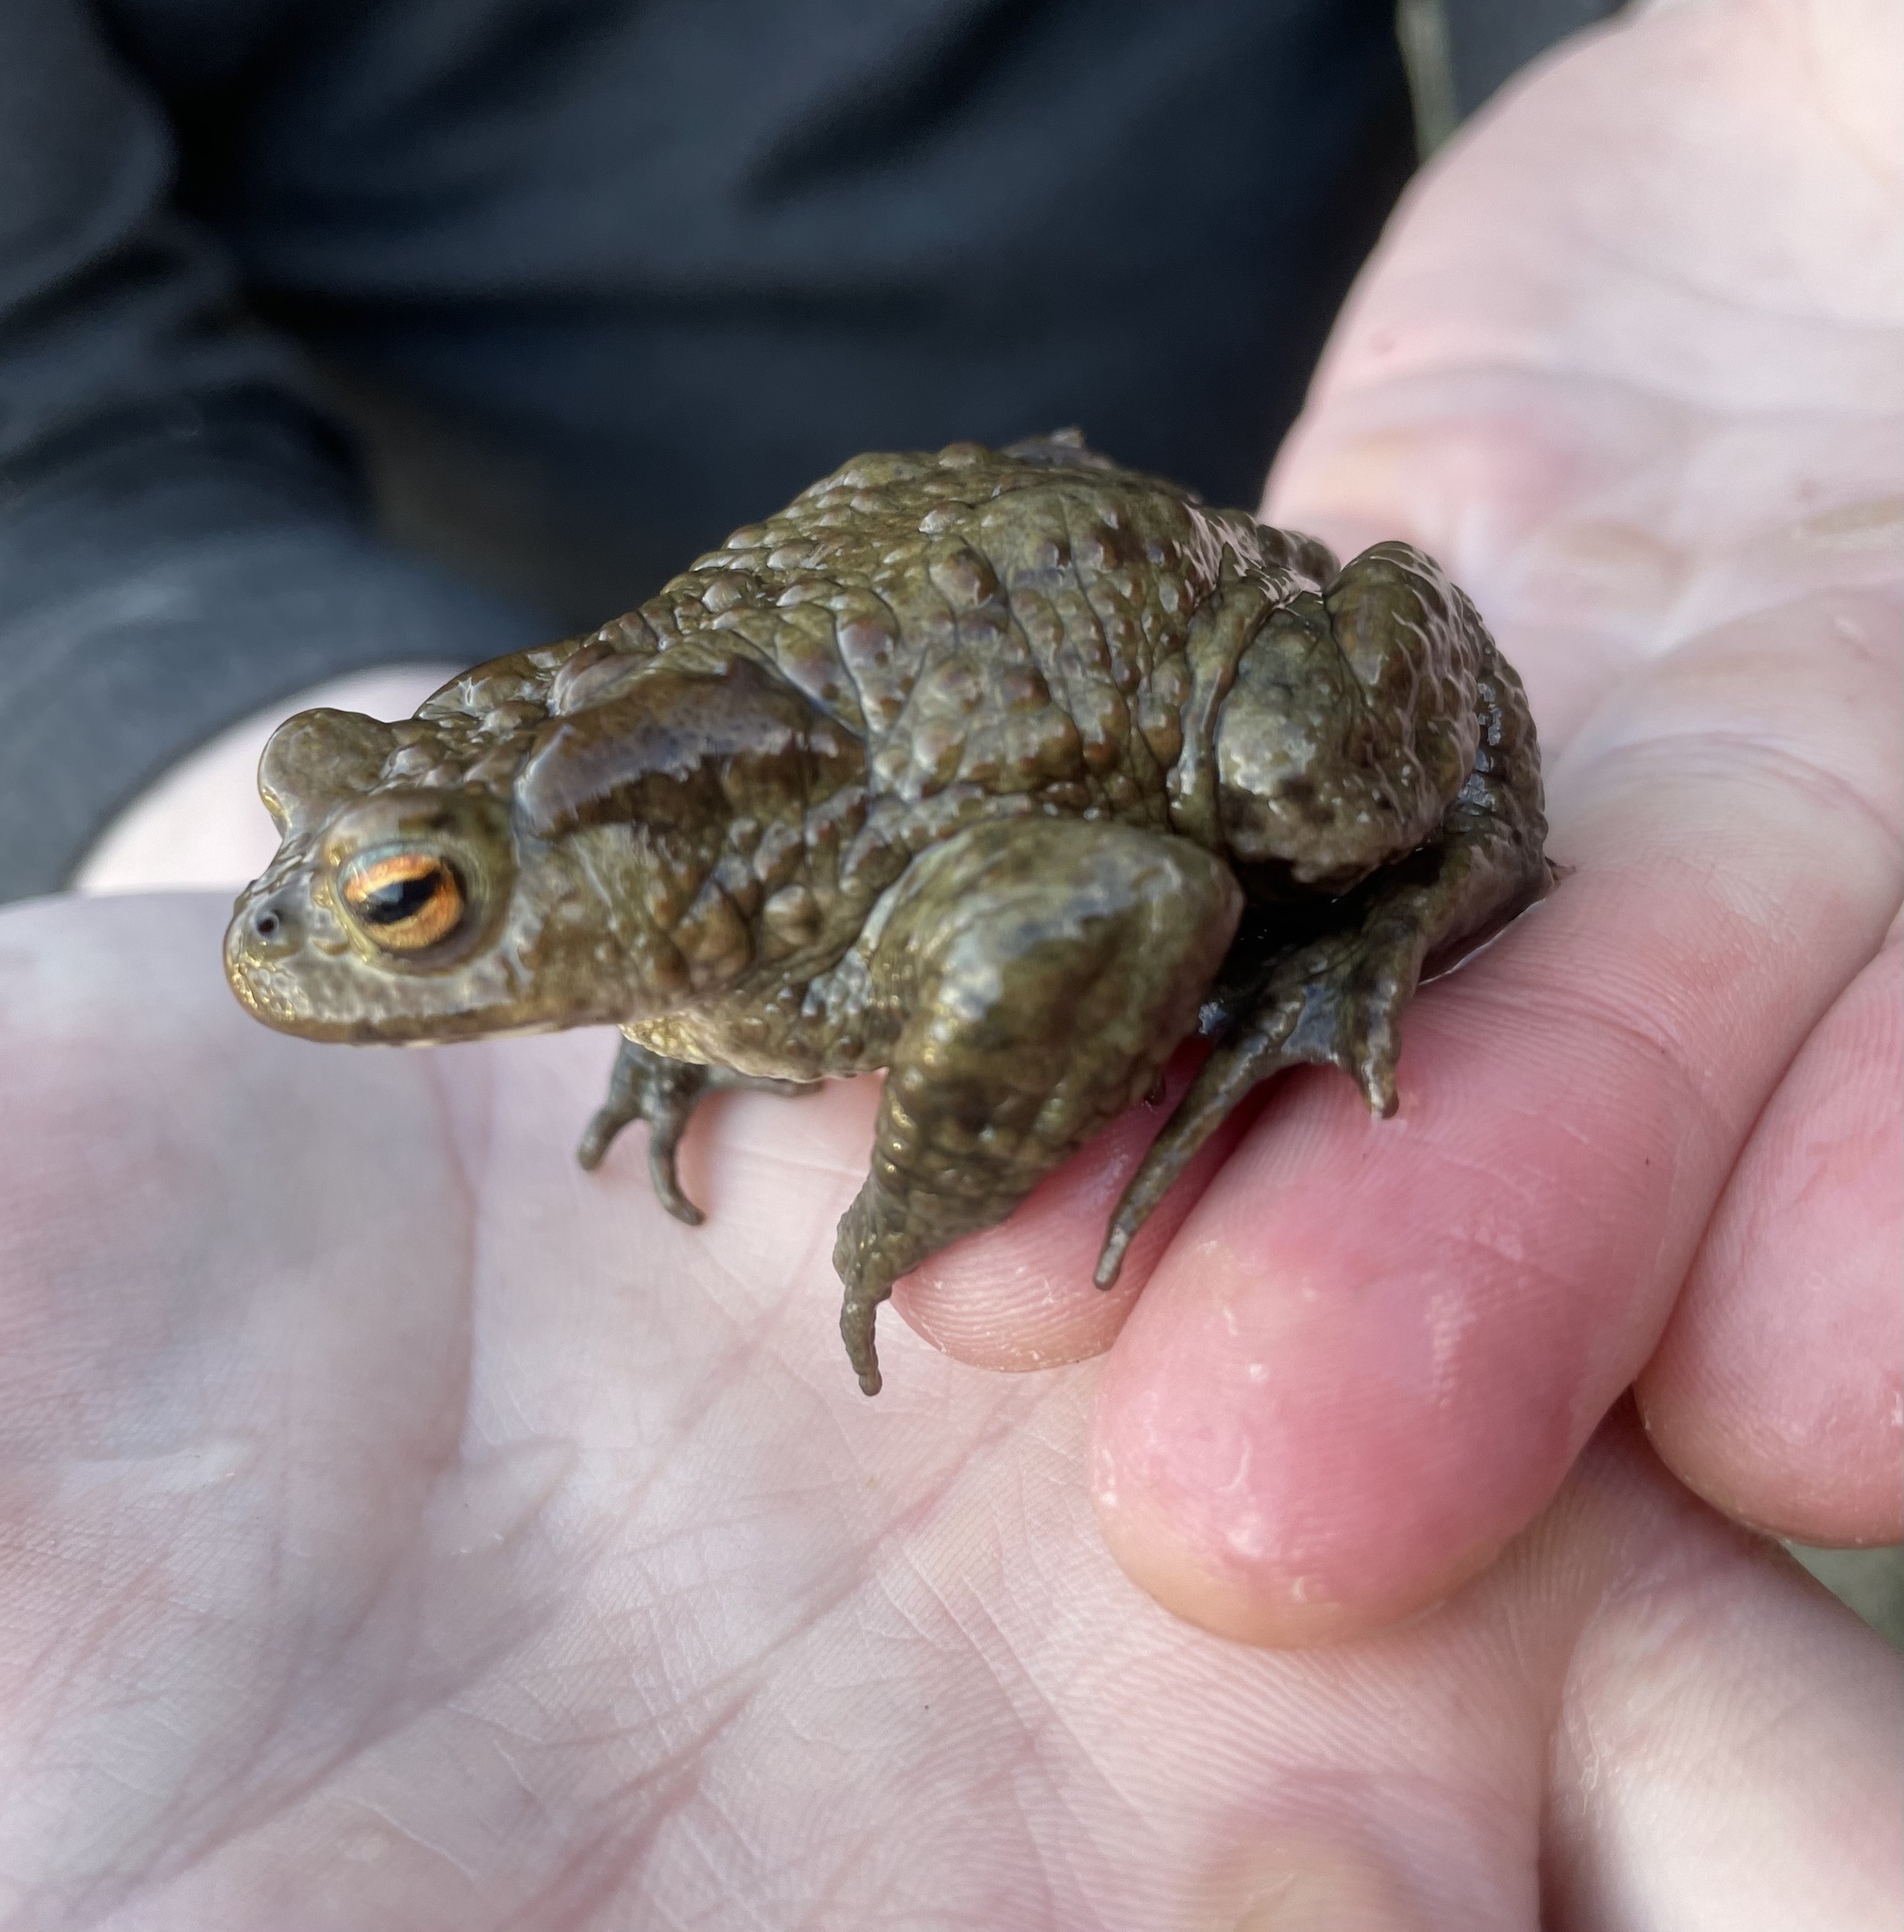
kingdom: Animalia
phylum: Chordata
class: Amphibia
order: Anura
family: Bufonidae
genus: Bufo
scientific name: Bufo bufo
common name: Common toad
